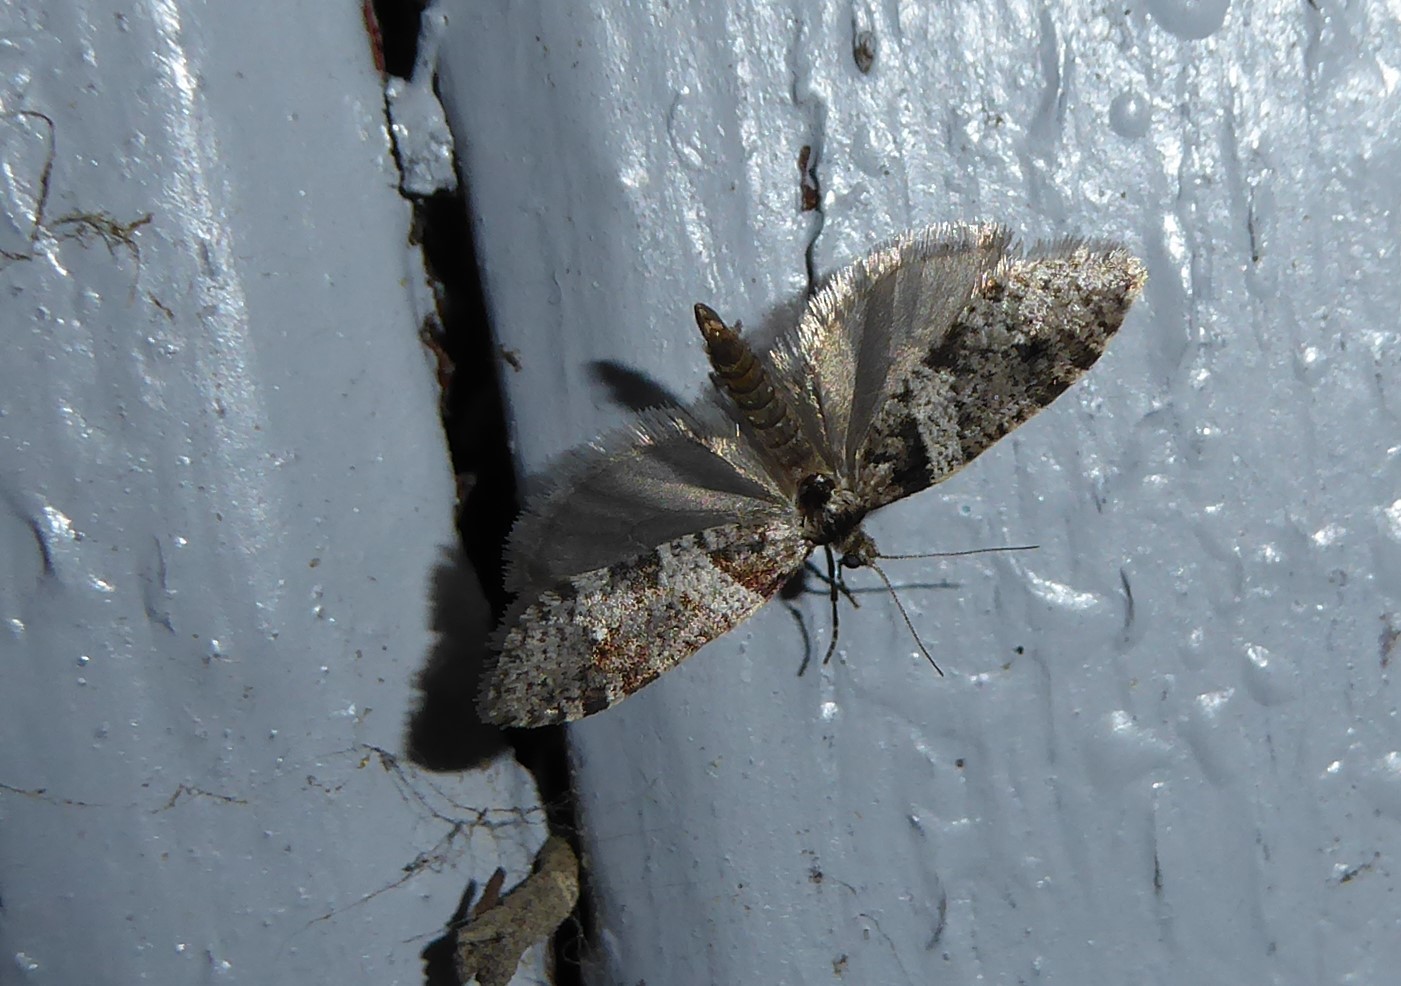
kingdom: Animalia
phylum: Arthropoda
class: Insecta
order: Lepidoptera
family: Psychidae
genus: Lepidoscia
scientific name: Lepidoscia heliochares
